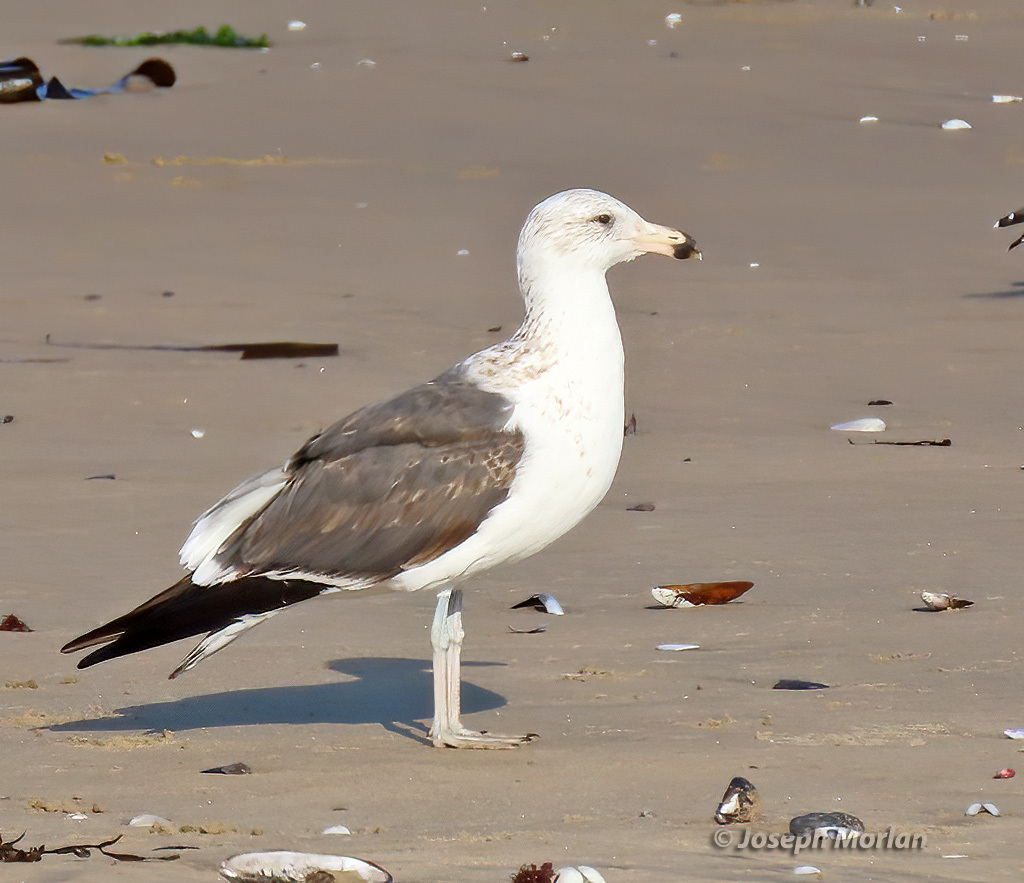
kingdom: Animalia
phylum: Chordata
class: Aves
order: Charadriiformes
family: Laridae
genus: Larus
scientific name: Larus dominicanus
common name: Kelp gull
